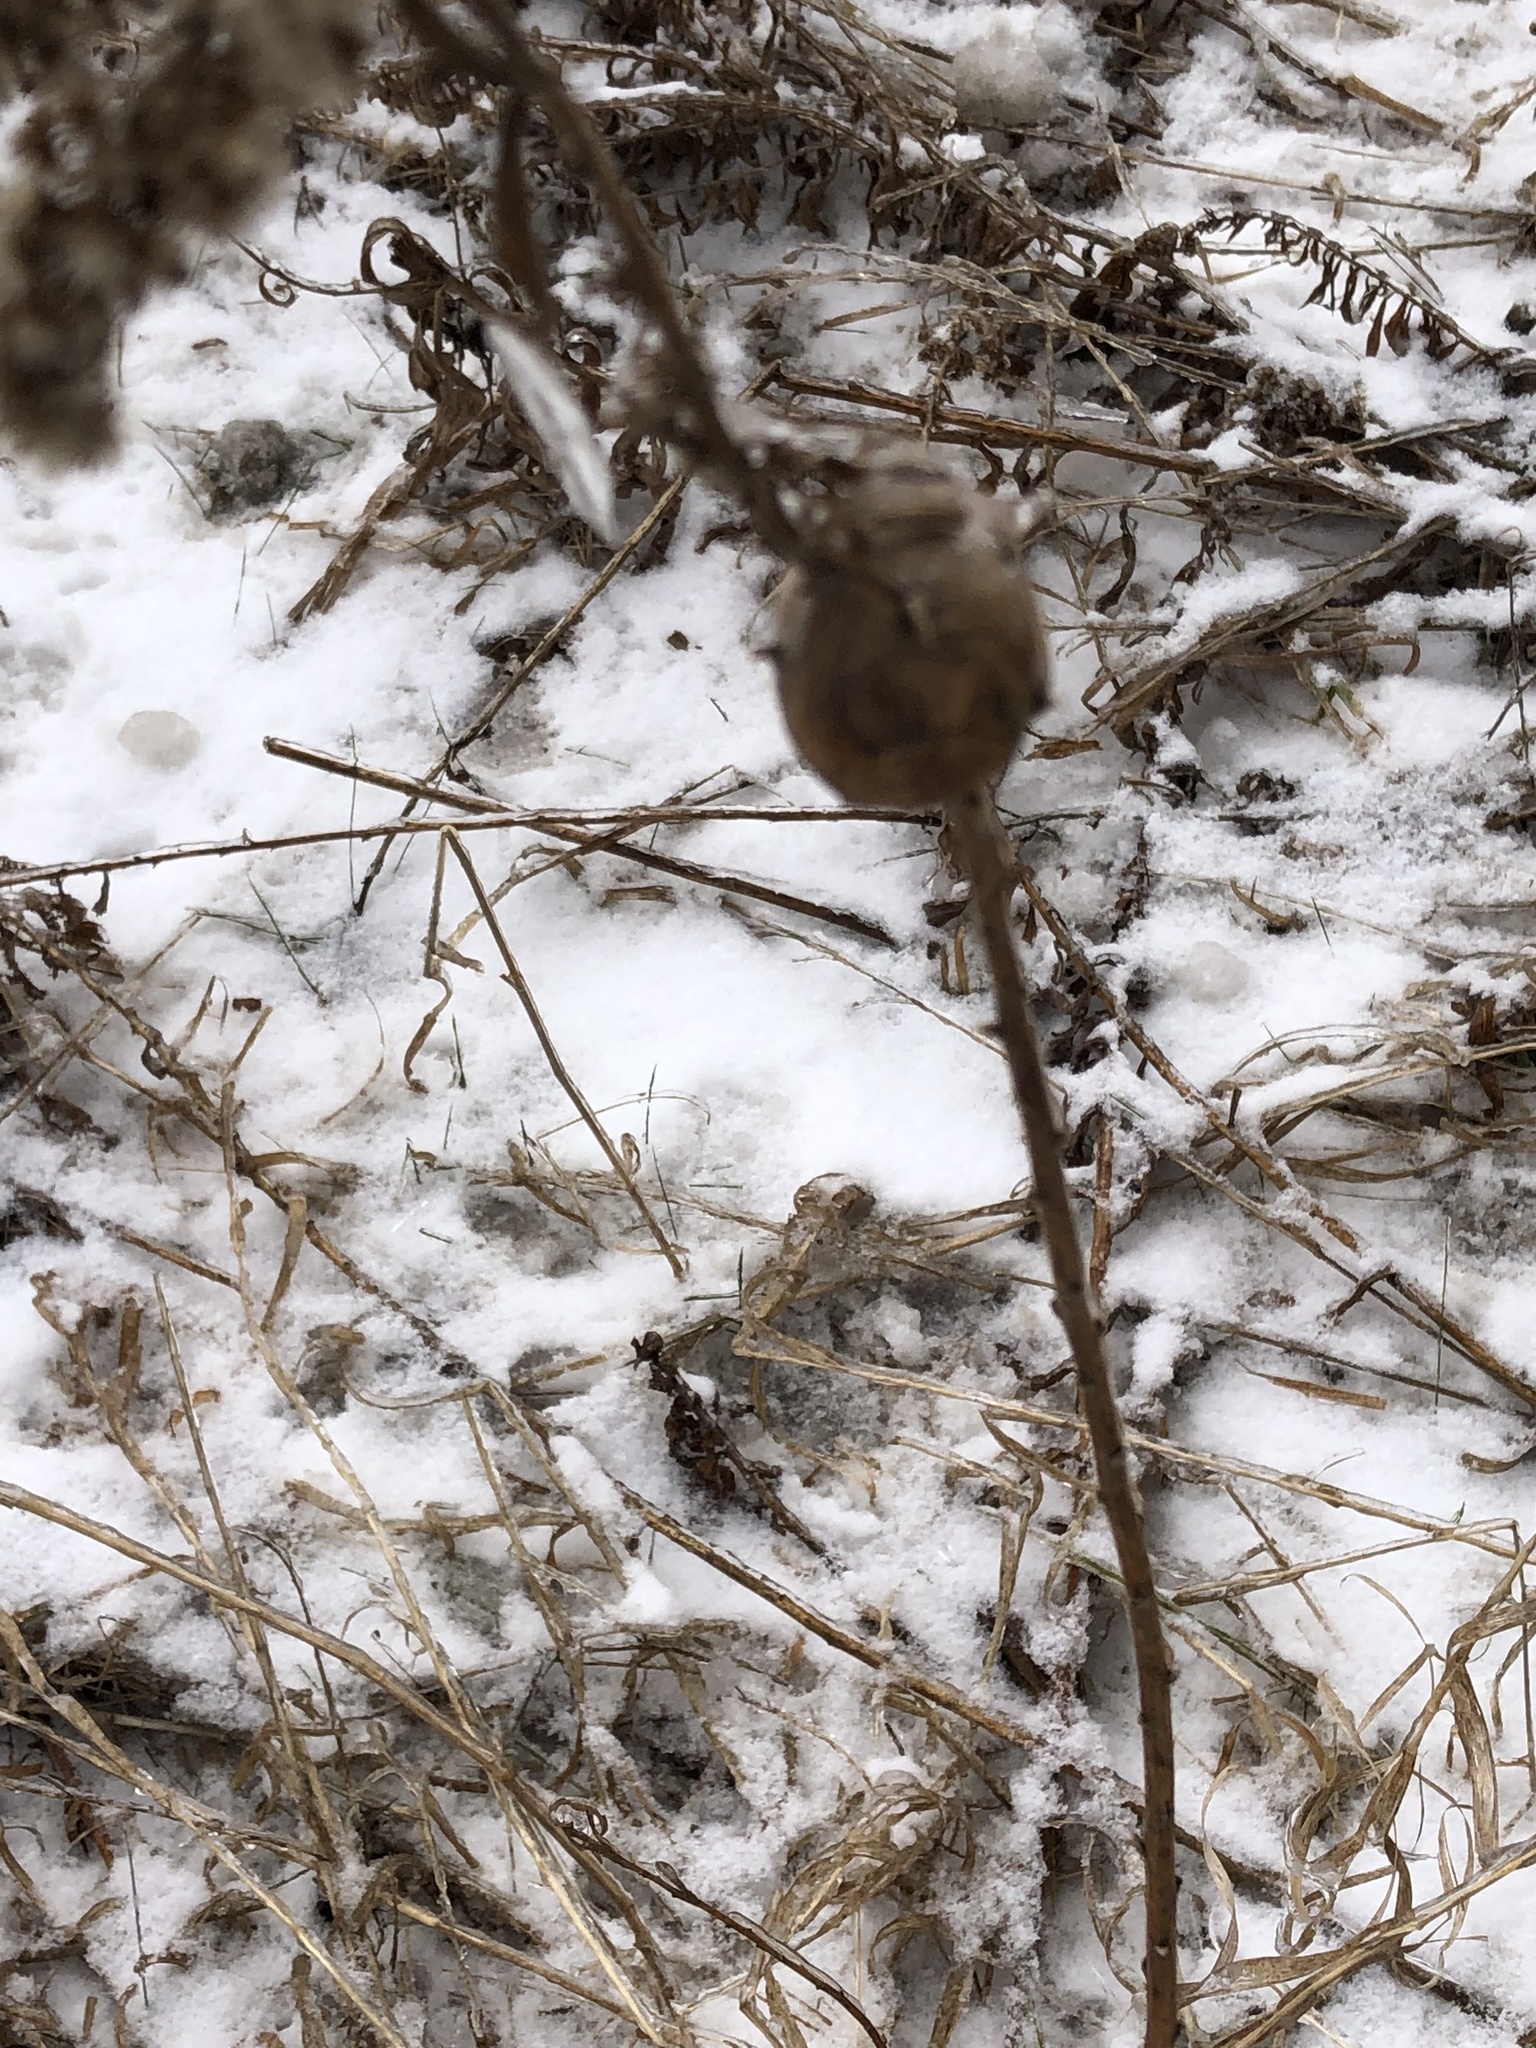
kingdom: Animalia
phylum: Arthropoda
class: Insecta
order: Diptera
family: Tephritidae
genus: Eurosta
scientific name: Eurosta solidaginis
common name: Goldenrod gall fly
